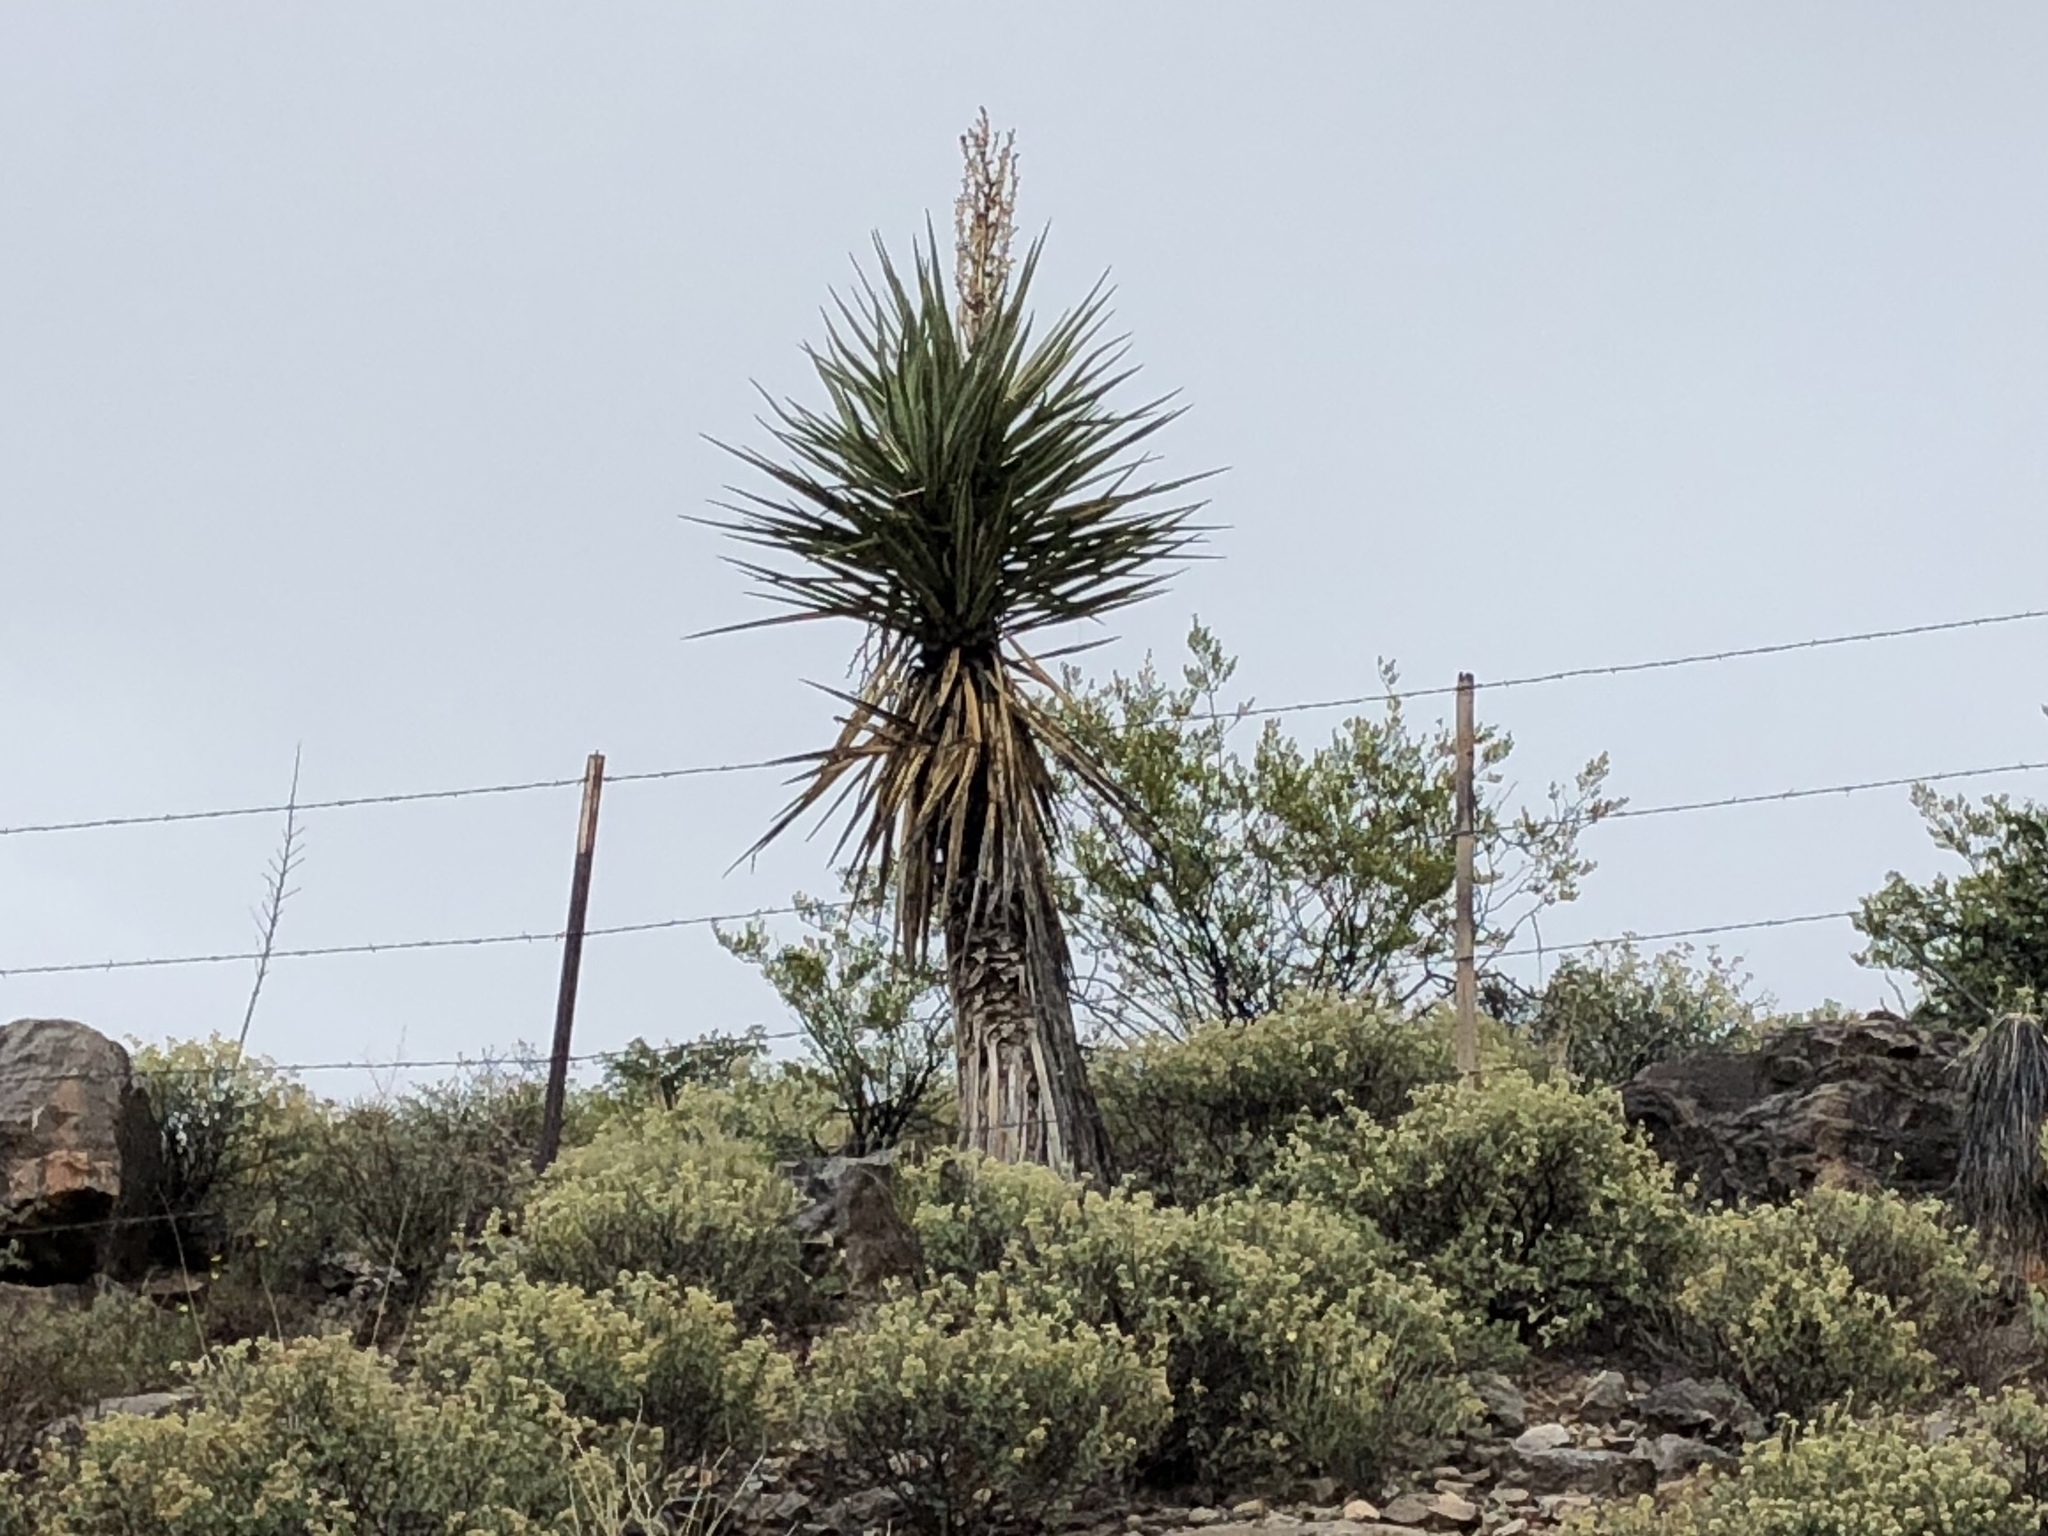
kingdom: Plantae
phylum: Tracheophyta
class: Liliopsida
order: Asparagales
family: Asparagaceae
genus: Yucca
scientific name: Yucca treculiana
